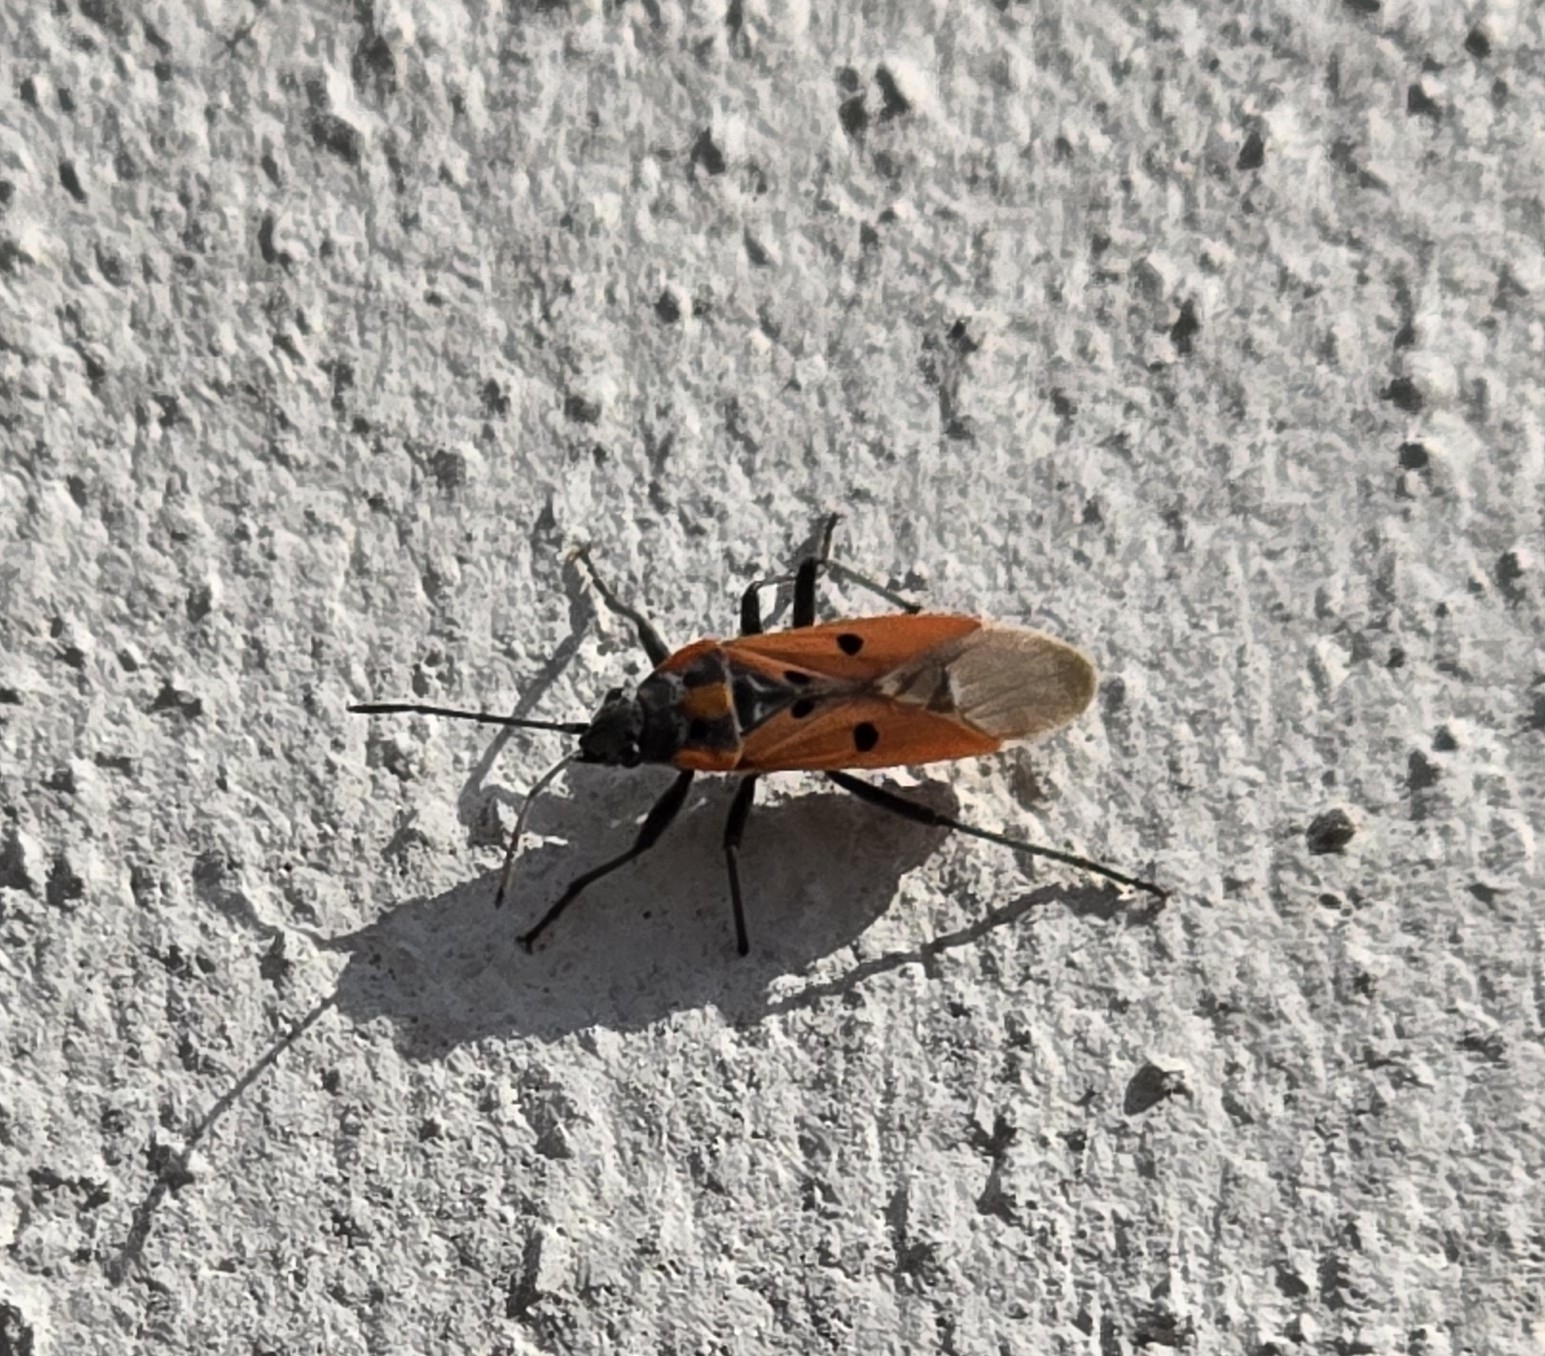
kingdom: Animalia
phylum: Arthropoda
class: Insecta
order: Hemiptera
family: Lygaeidae
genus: Lygaeus
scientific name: Lygaeus creticus
